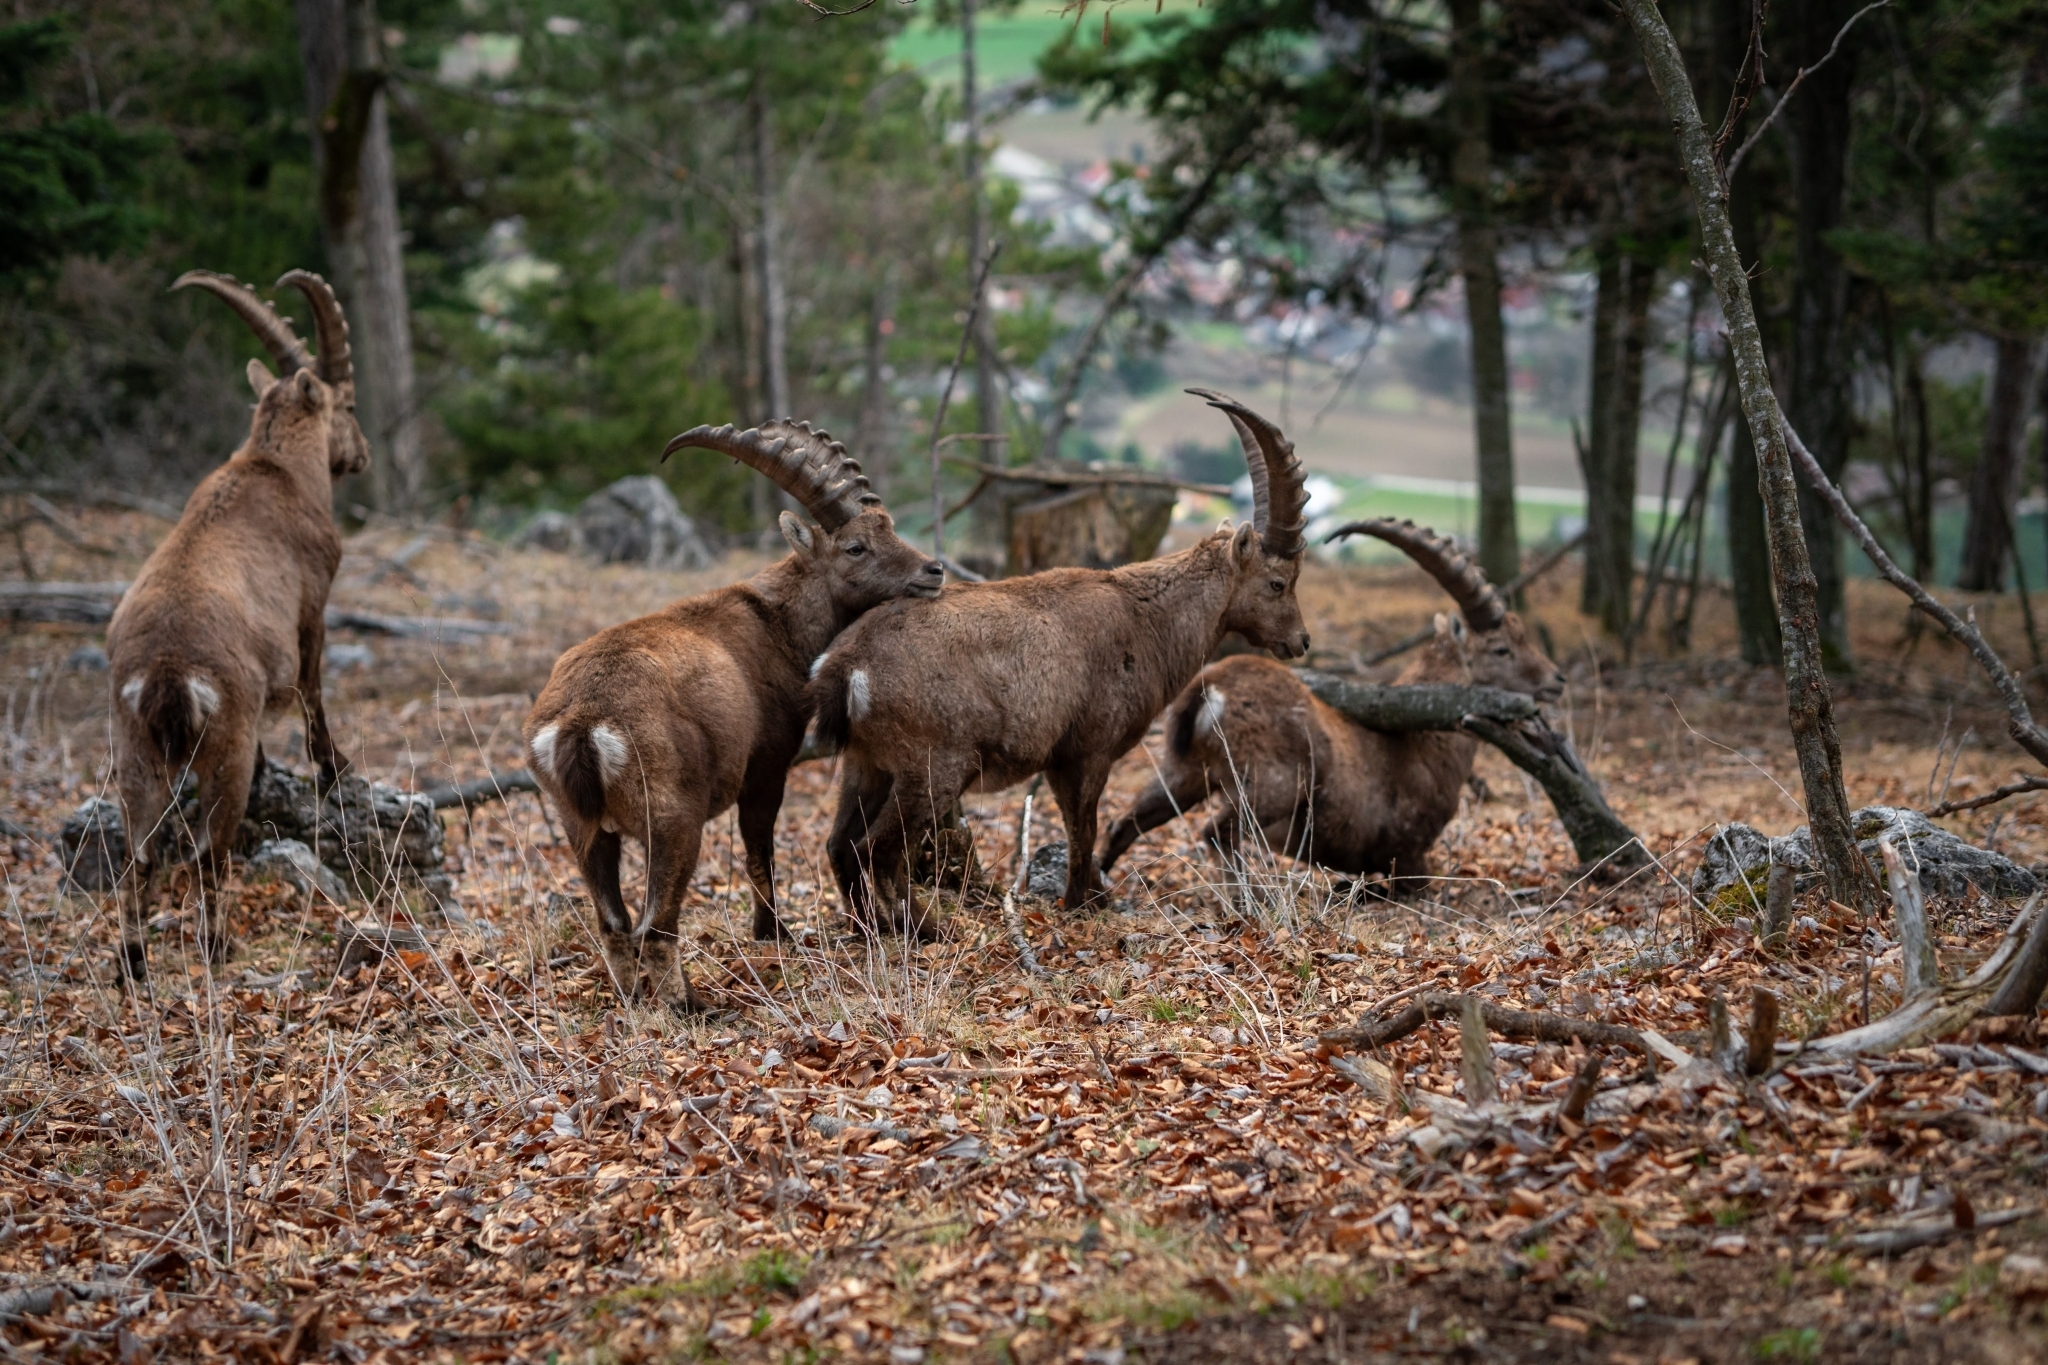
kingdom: Animalia
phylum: Chordata
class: Mammalia
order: Artiodactyla
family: Bovidae
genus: Capra
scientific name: Capra ibex
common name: Alpine ibex
